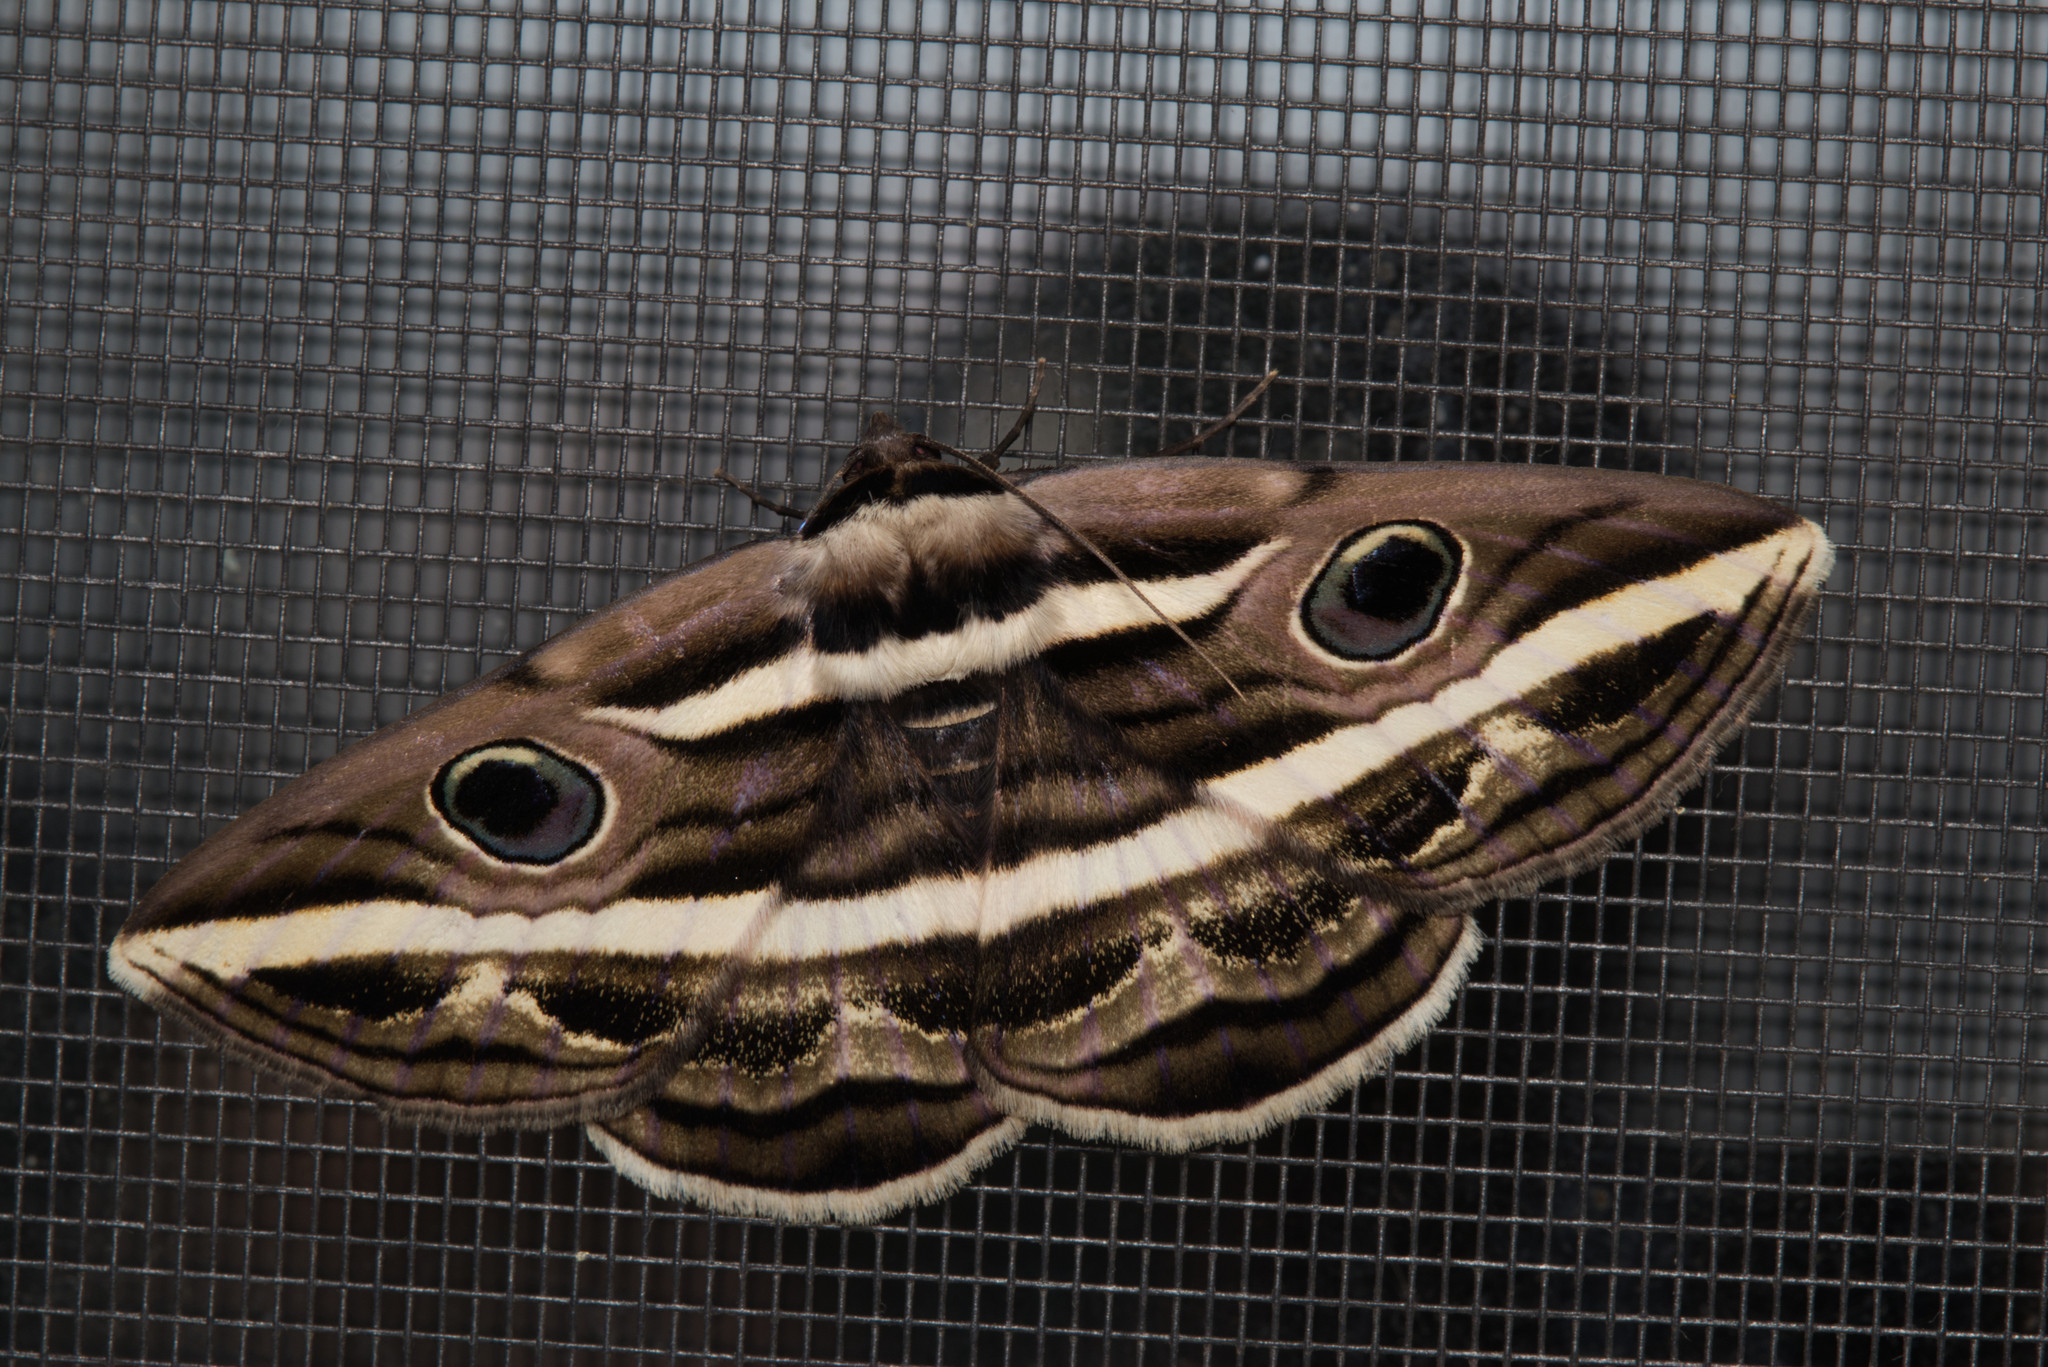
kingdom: Animalia
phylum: Arthropoda
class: Insecta
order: Lepidoptera
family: Erebidae
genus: Donuca
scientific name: Donuca rubropicta
